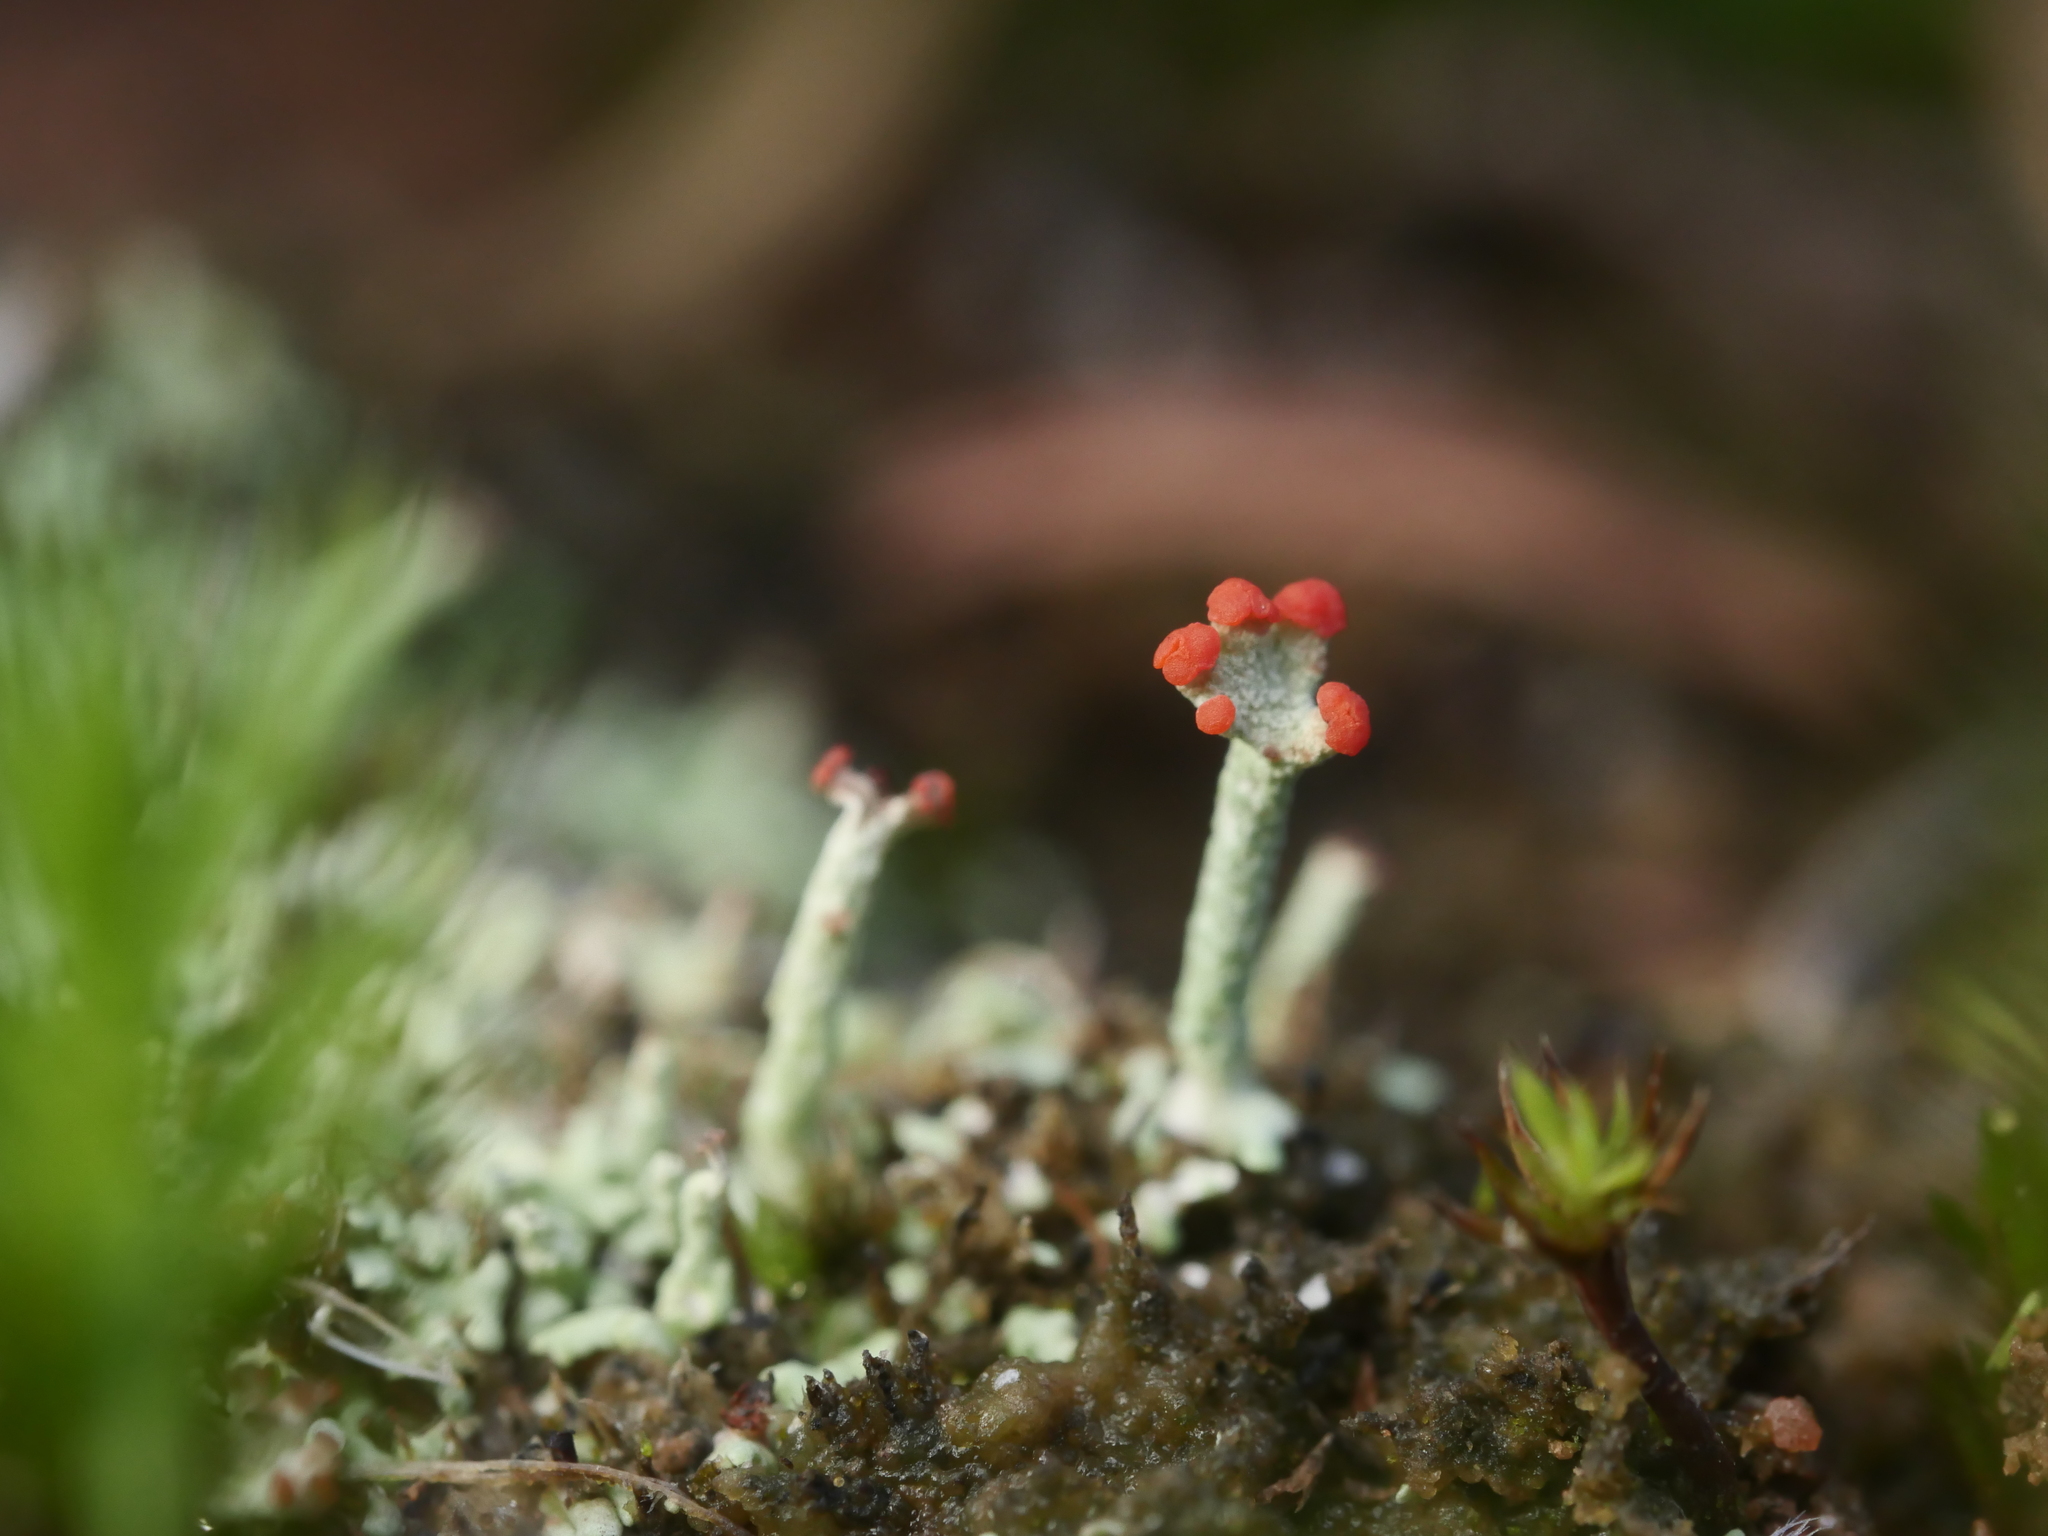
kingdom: Fungi
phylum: Ascomycota
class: Lecanoromycetes
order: Lecanorales
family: Cladoniaceae
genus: Cladonia
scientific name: Cladonia cristatella
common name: British soldier lichen
